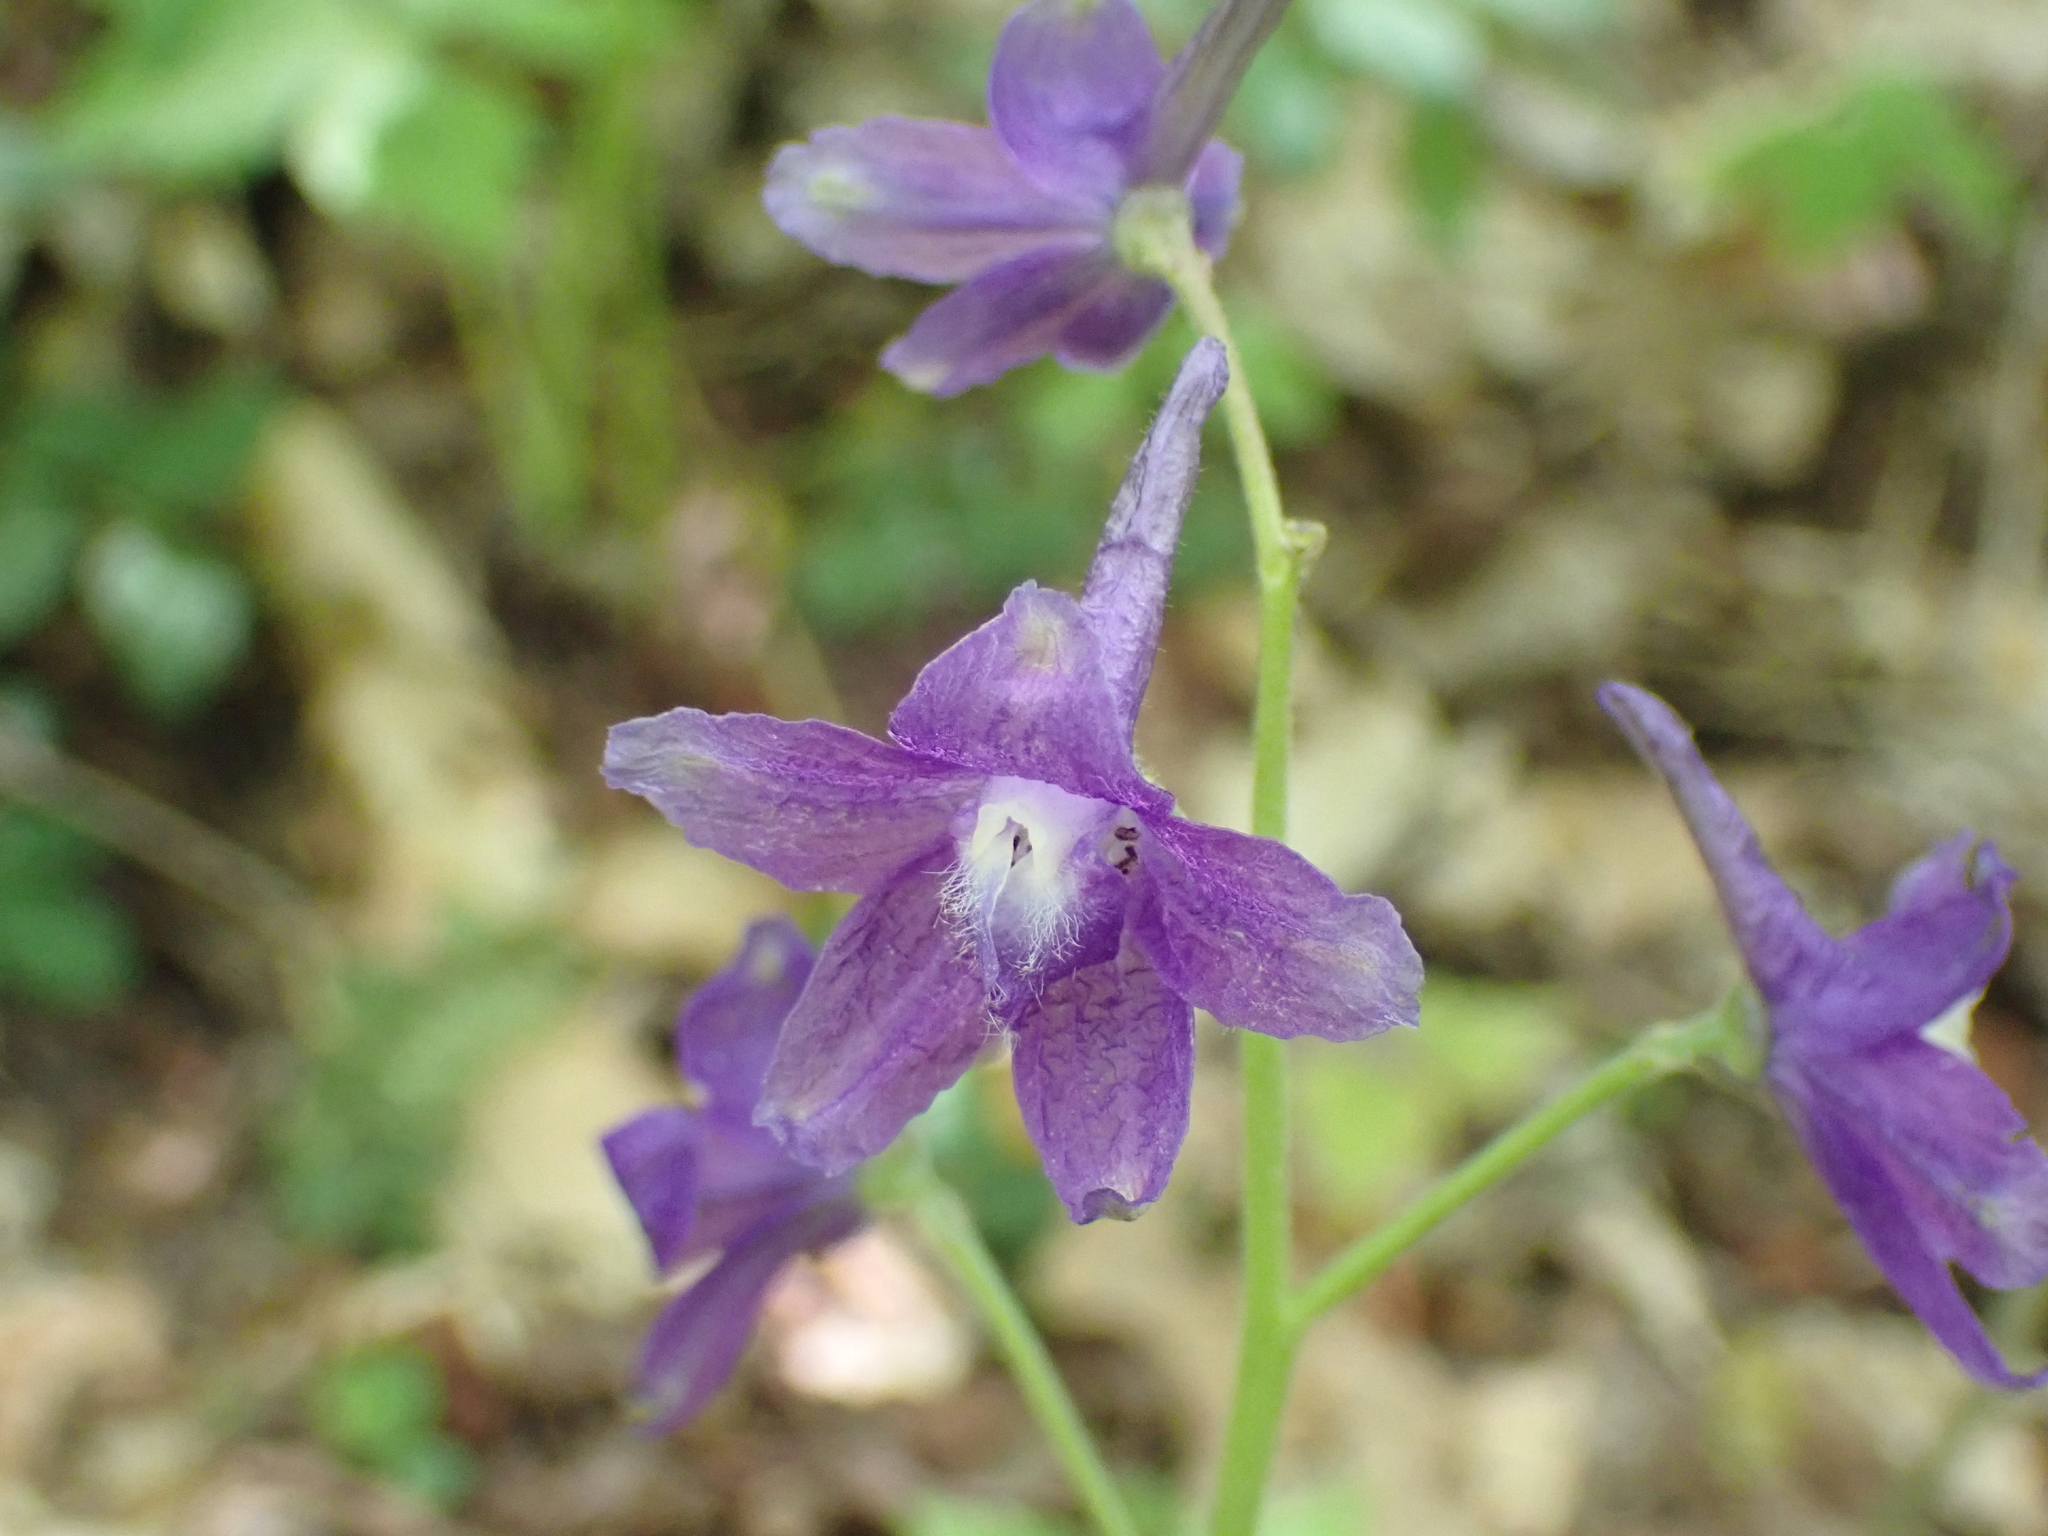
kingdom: Plantae
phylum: Tracheophyta
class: Magnoliopsida
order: Ranunculales
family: Ranunculaceae
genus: Delphinium
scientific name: Delphinium tricorne
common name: Dwarf larkspur
